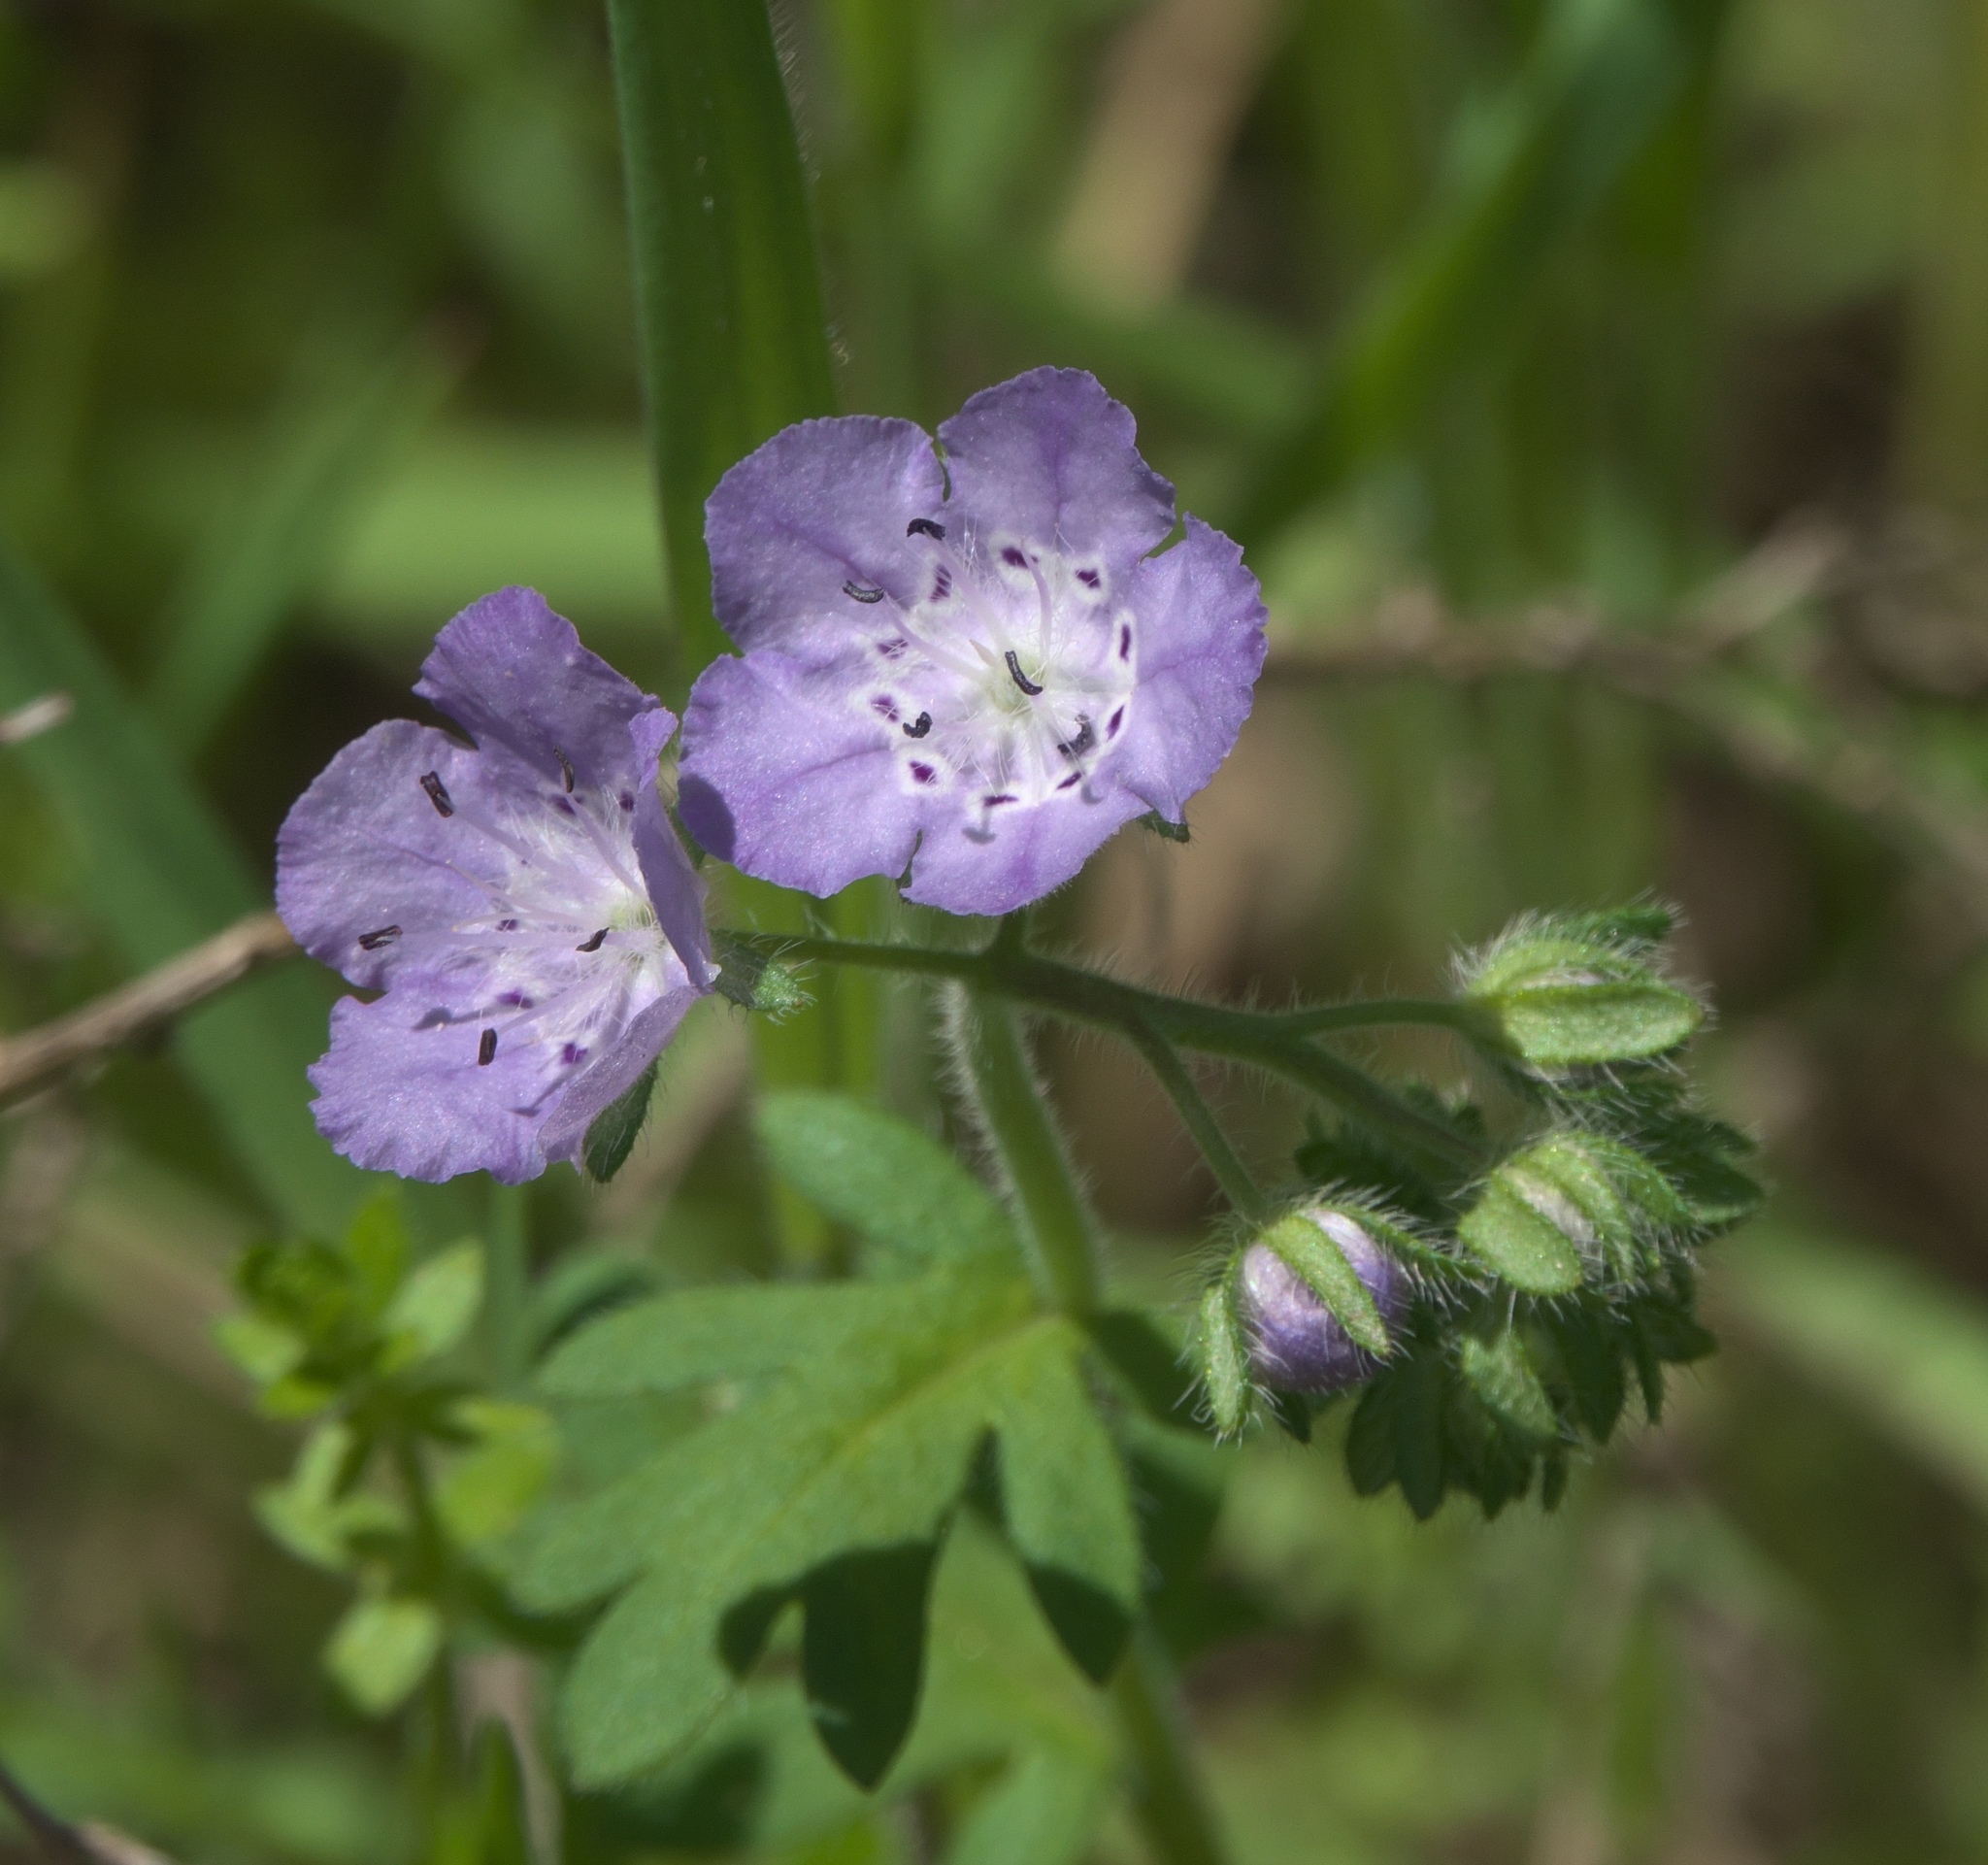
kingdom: Plantae
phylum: Tracheophyta
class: Magnoliopsida
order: Boraginales
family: Hydrophyllaceae
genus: Phacelia
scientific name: Phacelia hirsuta
